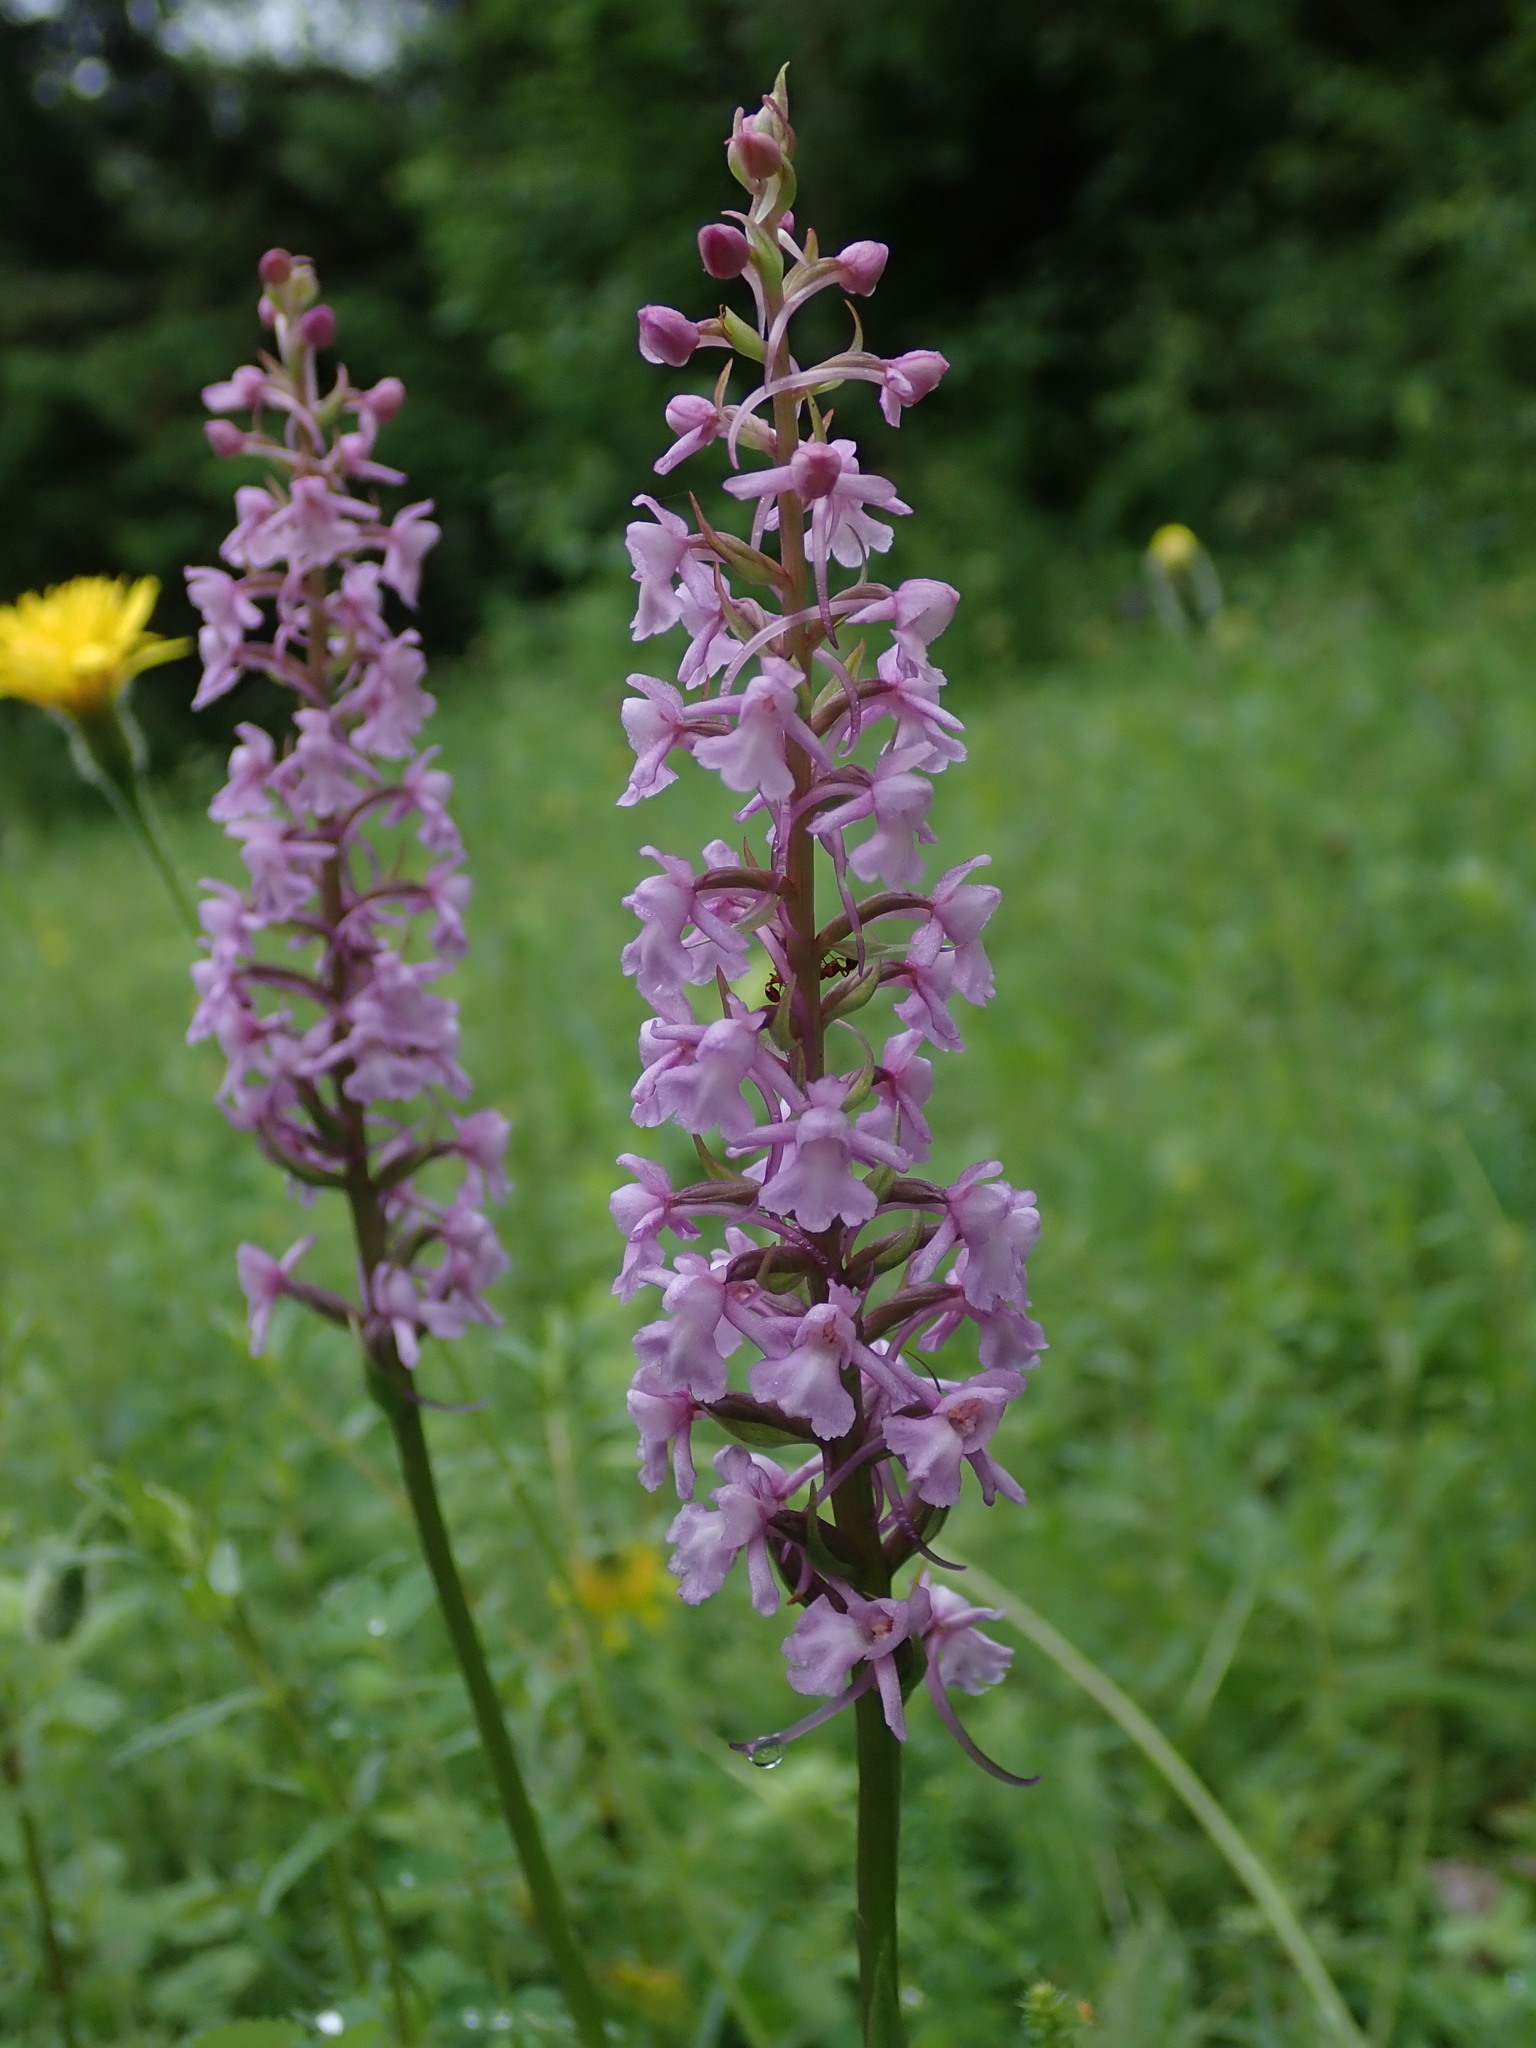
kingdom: Plantae
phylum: Tracheophyta
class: Liliopsida
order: Asparagales
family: Orchidaceae
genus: Gymnadenia
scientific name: Gymnadenia conopsea
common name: Fragrant orchid
